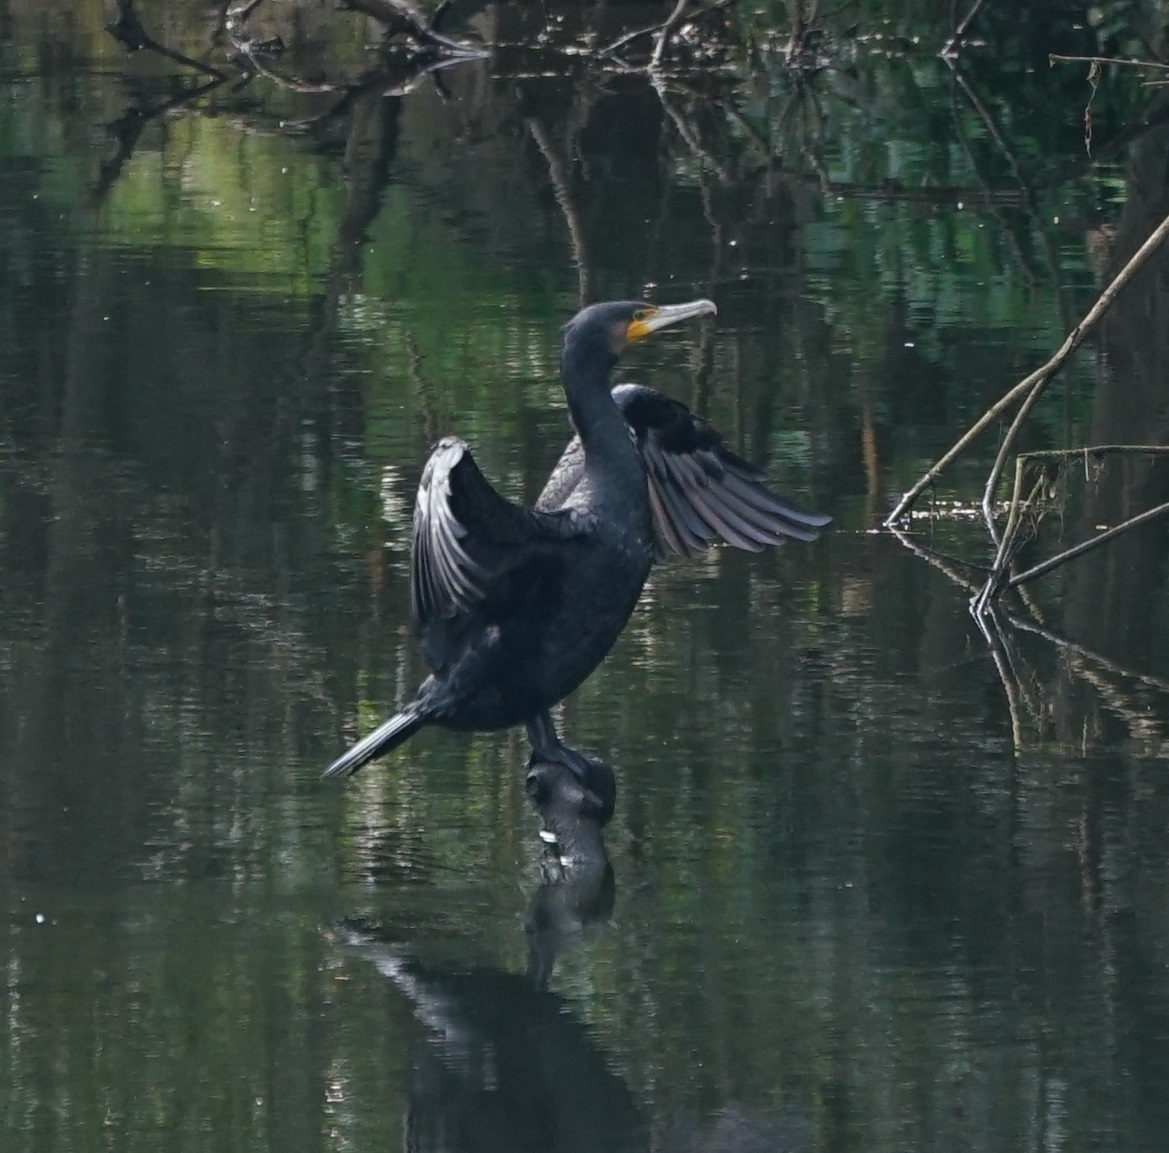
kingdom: Animalia
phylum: Chordata
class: Aves
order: Suliformes
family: Phalacrocoracidae
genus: Phalacrocorax
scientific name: Phalacrocorax carbo
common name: Great cormorant
